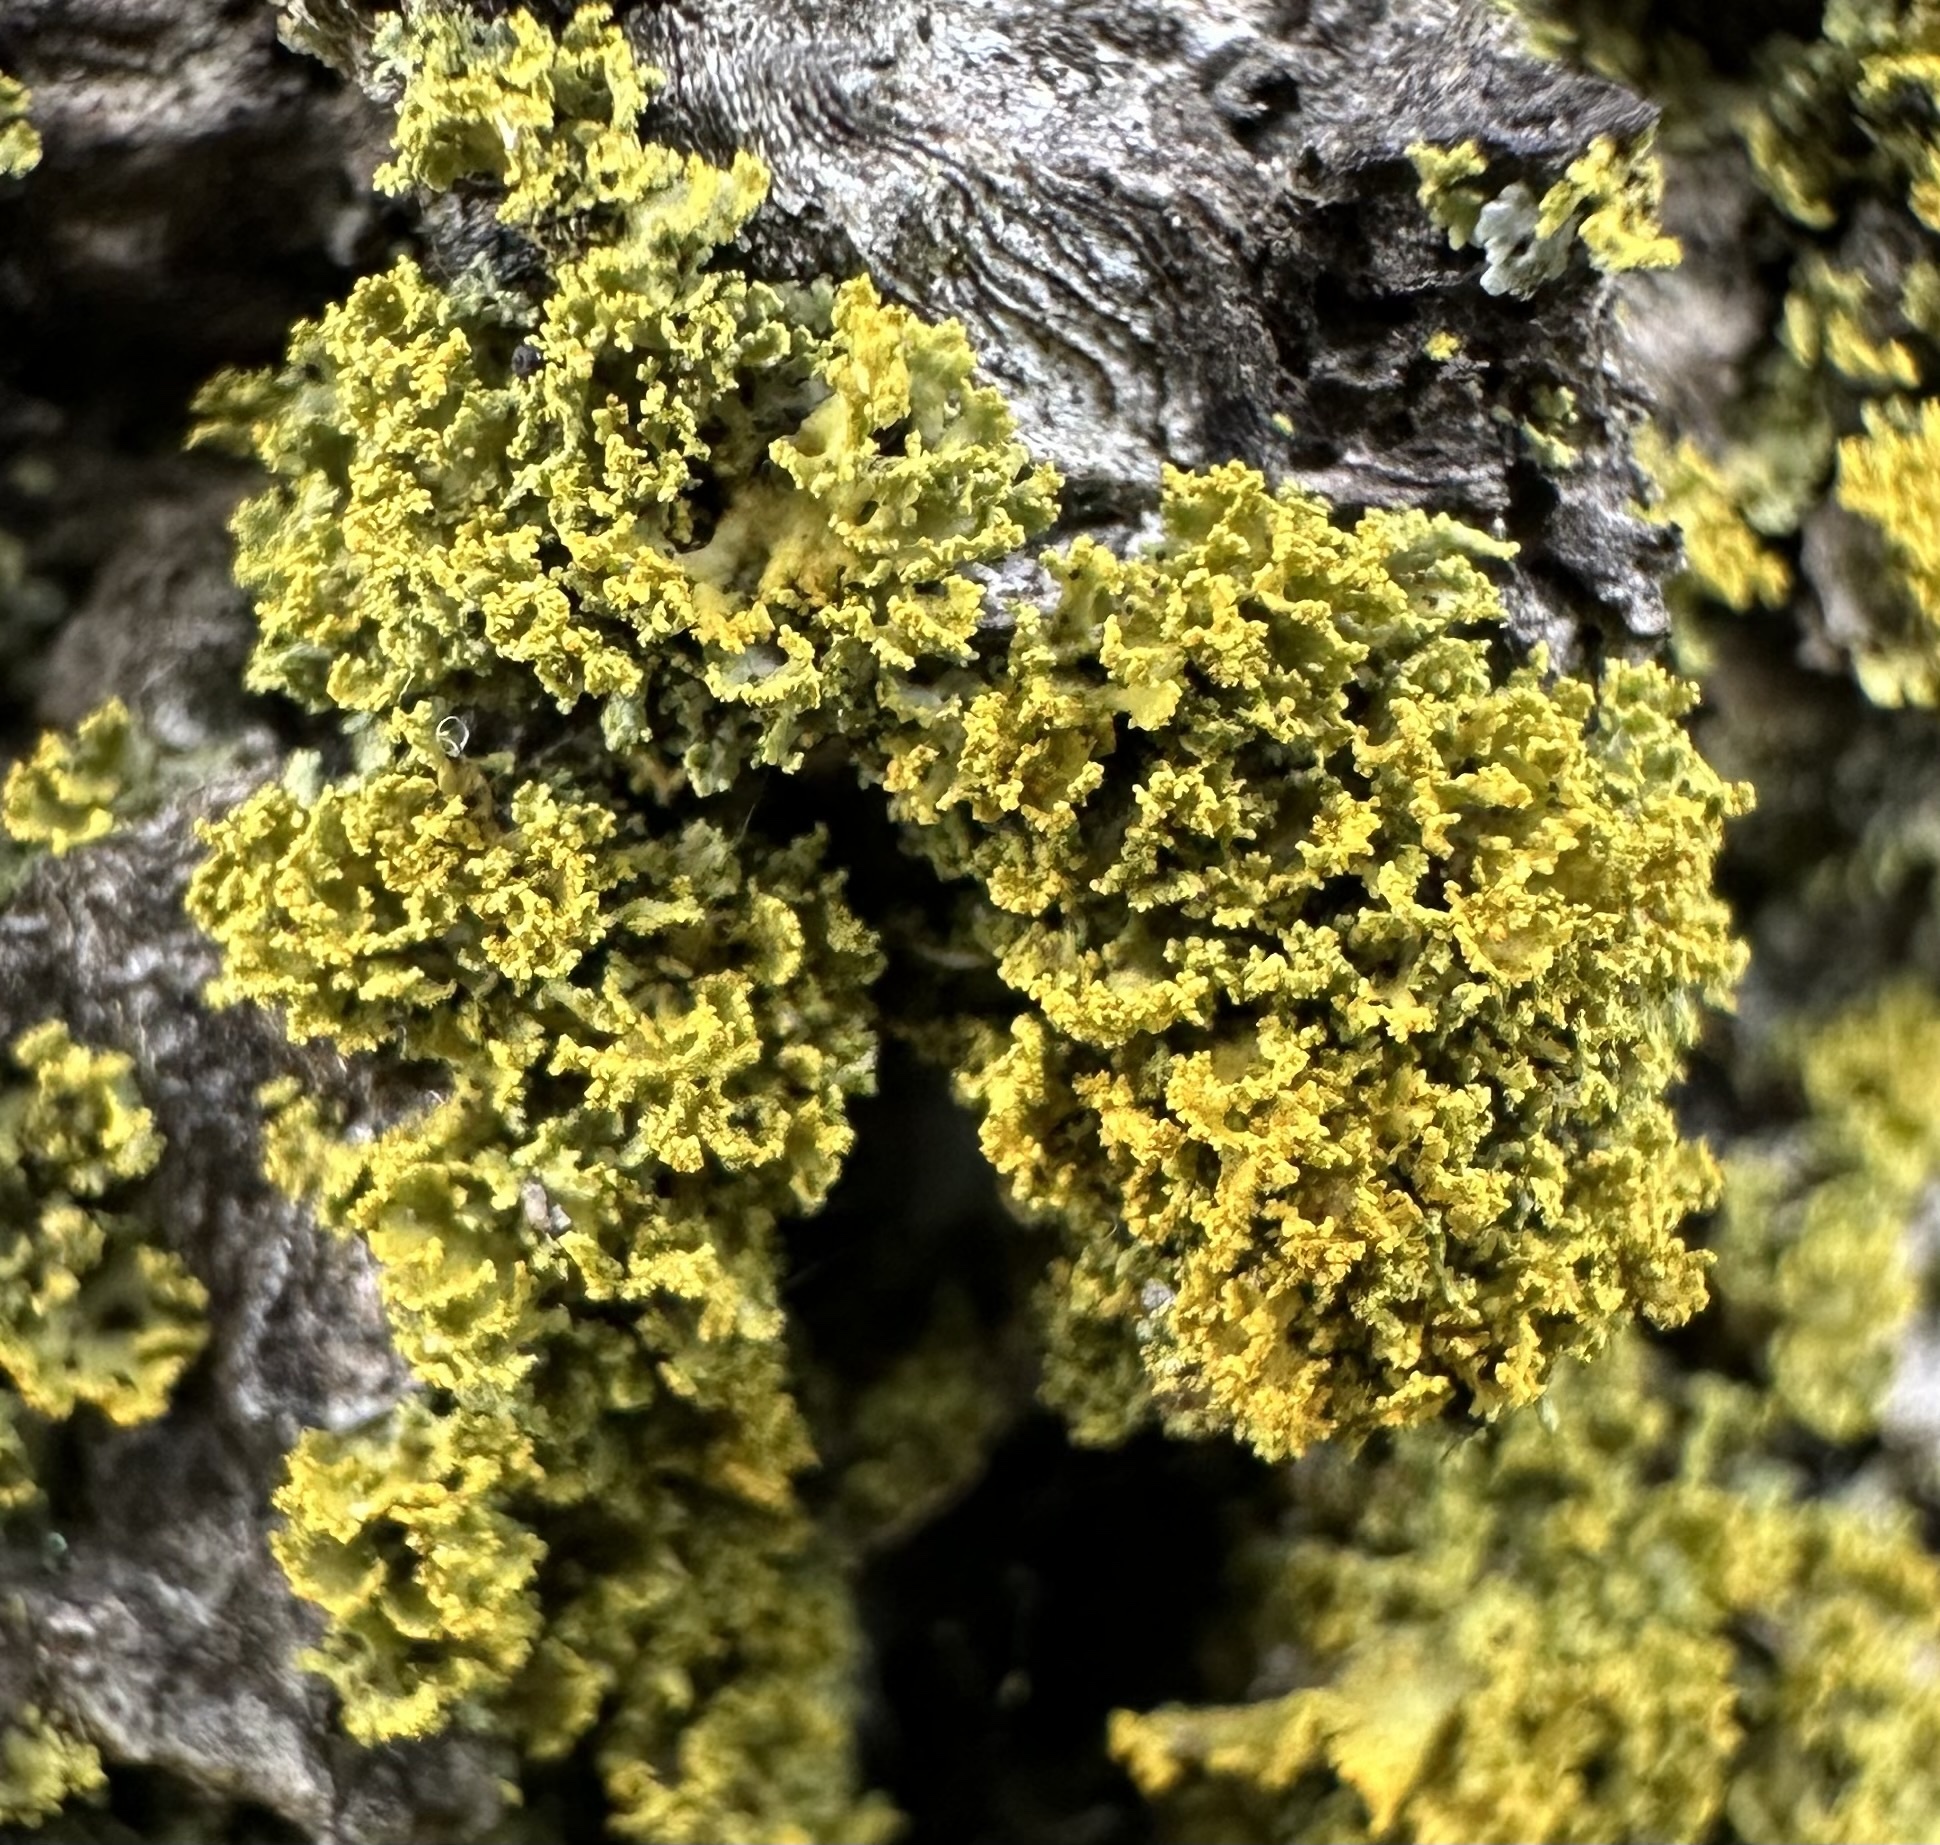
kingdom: Fungi
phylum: Ascomycota
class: Lecanoromycetes
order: Teloschistales
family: Teloschistaceae
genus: Polycauliona
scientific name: Polycauliona candelaria
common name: Shrubby sunburst lichen
